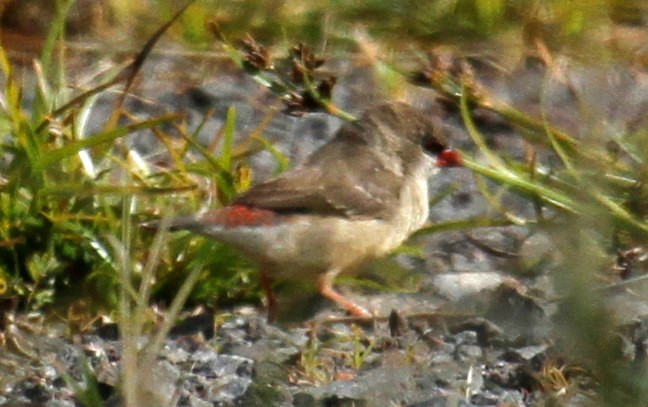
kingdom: Animalia
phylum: Chordata
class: Aves
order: Passeriformes
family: Estrildidae
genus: Amandava
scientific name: Amandava amandava
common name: Red avadavat
